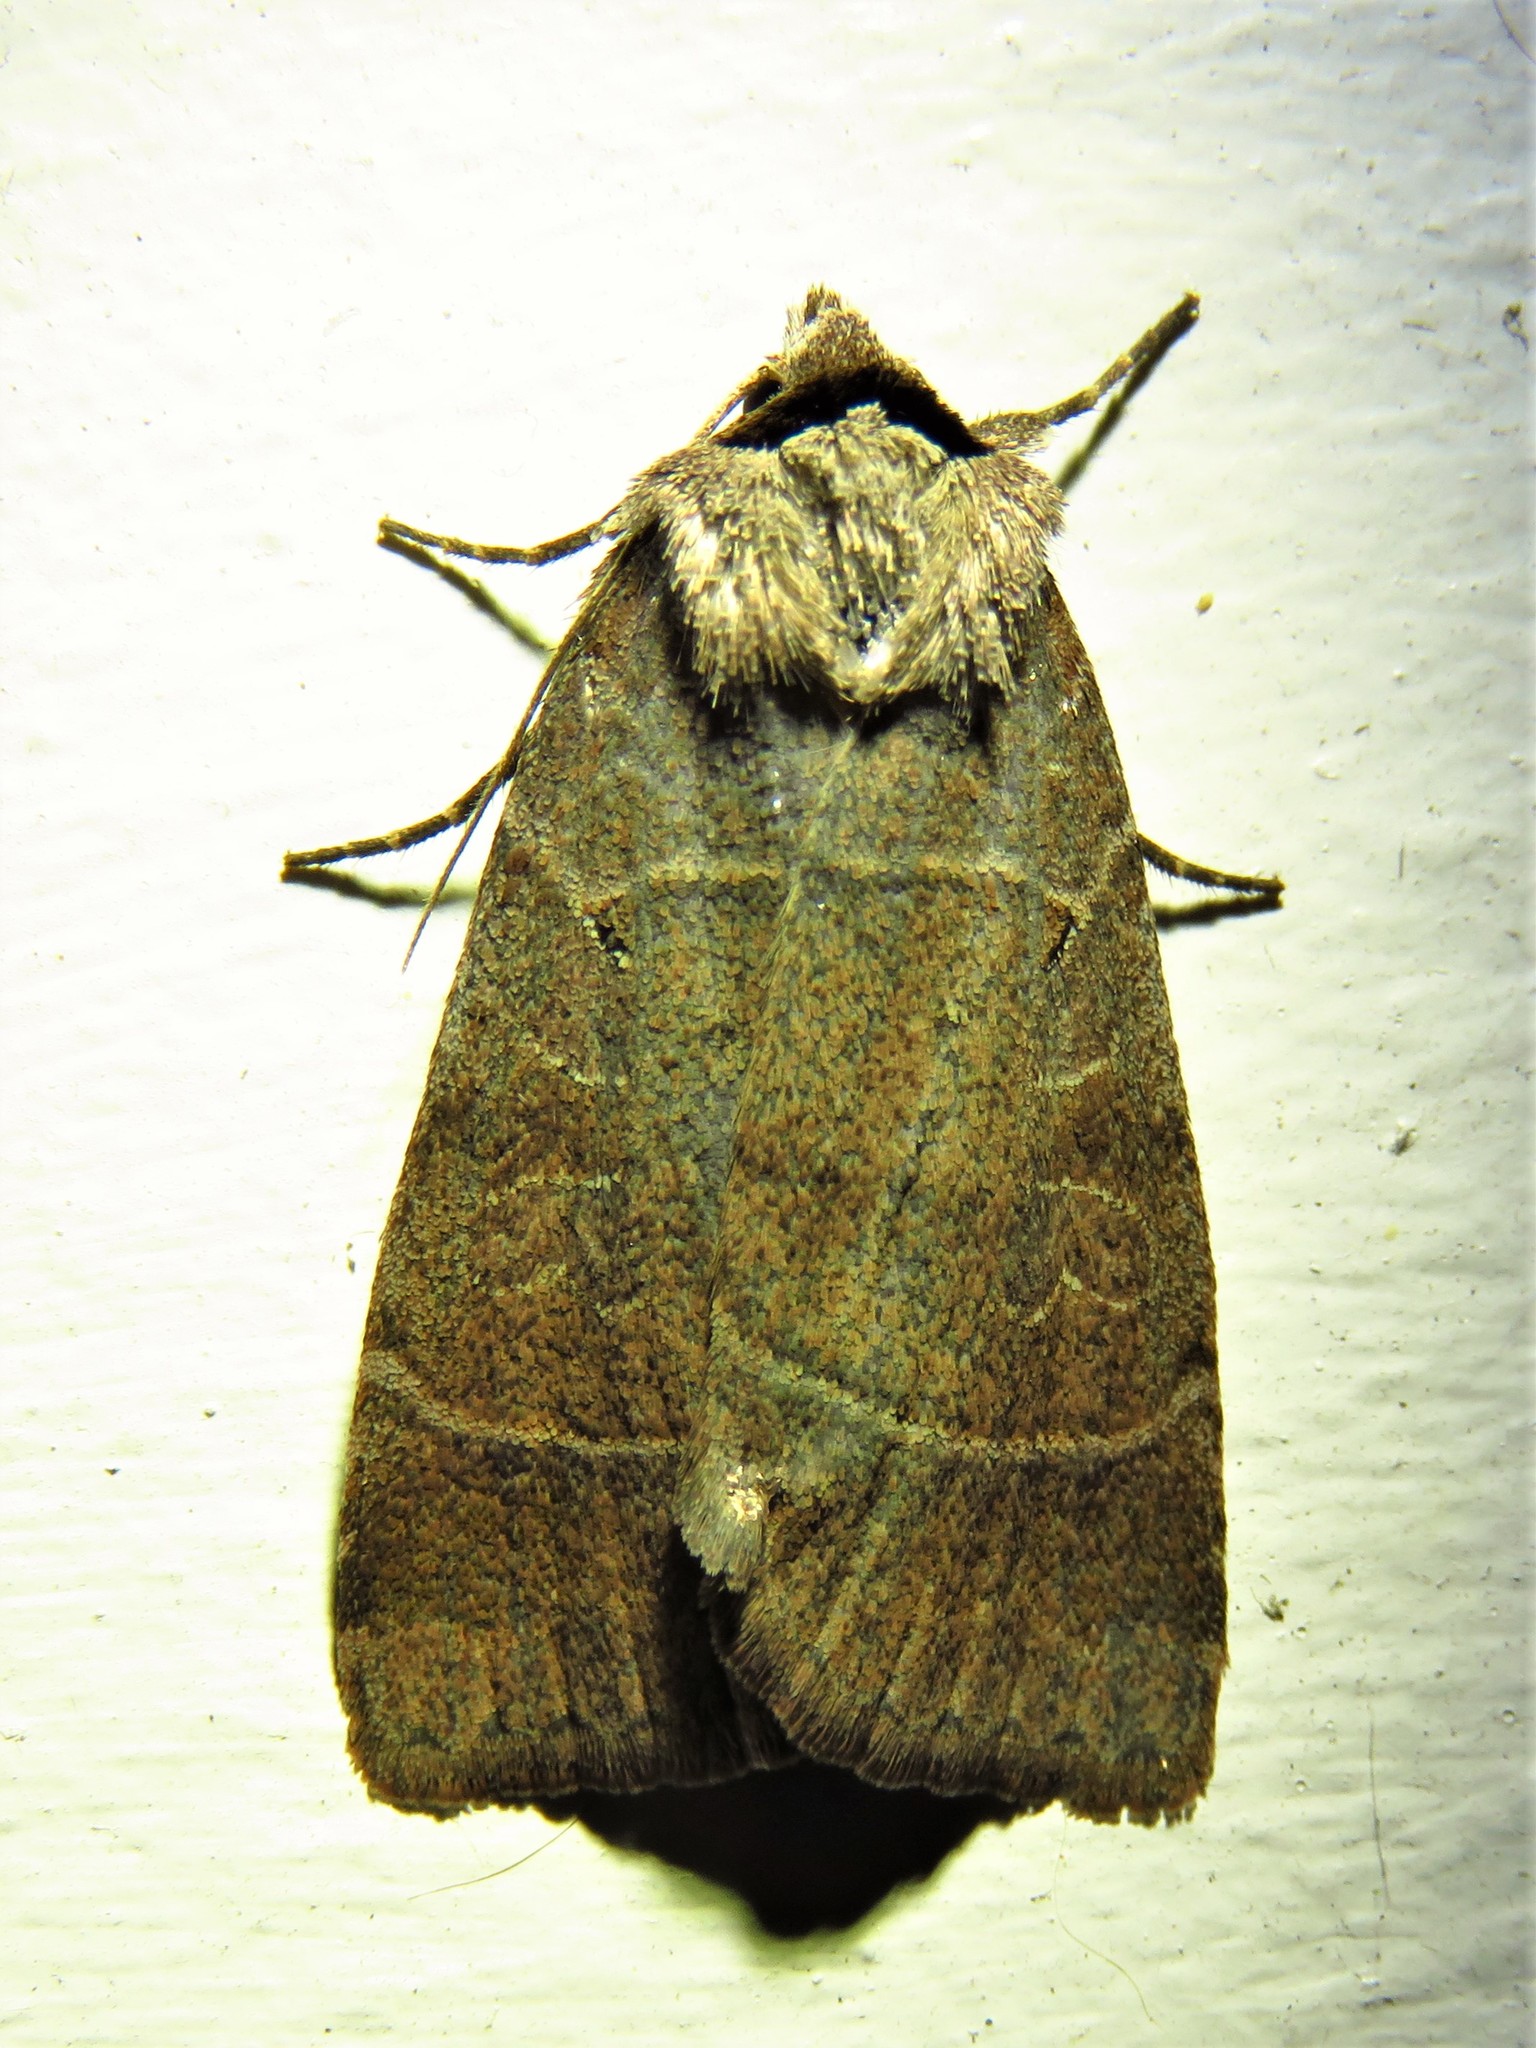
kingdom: Animalia
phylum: Arthropoda
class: Insecta
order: Lepidoptera
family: Noctuidae
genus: Agnorisma
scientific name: Agnorisma badinodis
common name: Pale-banded dart
